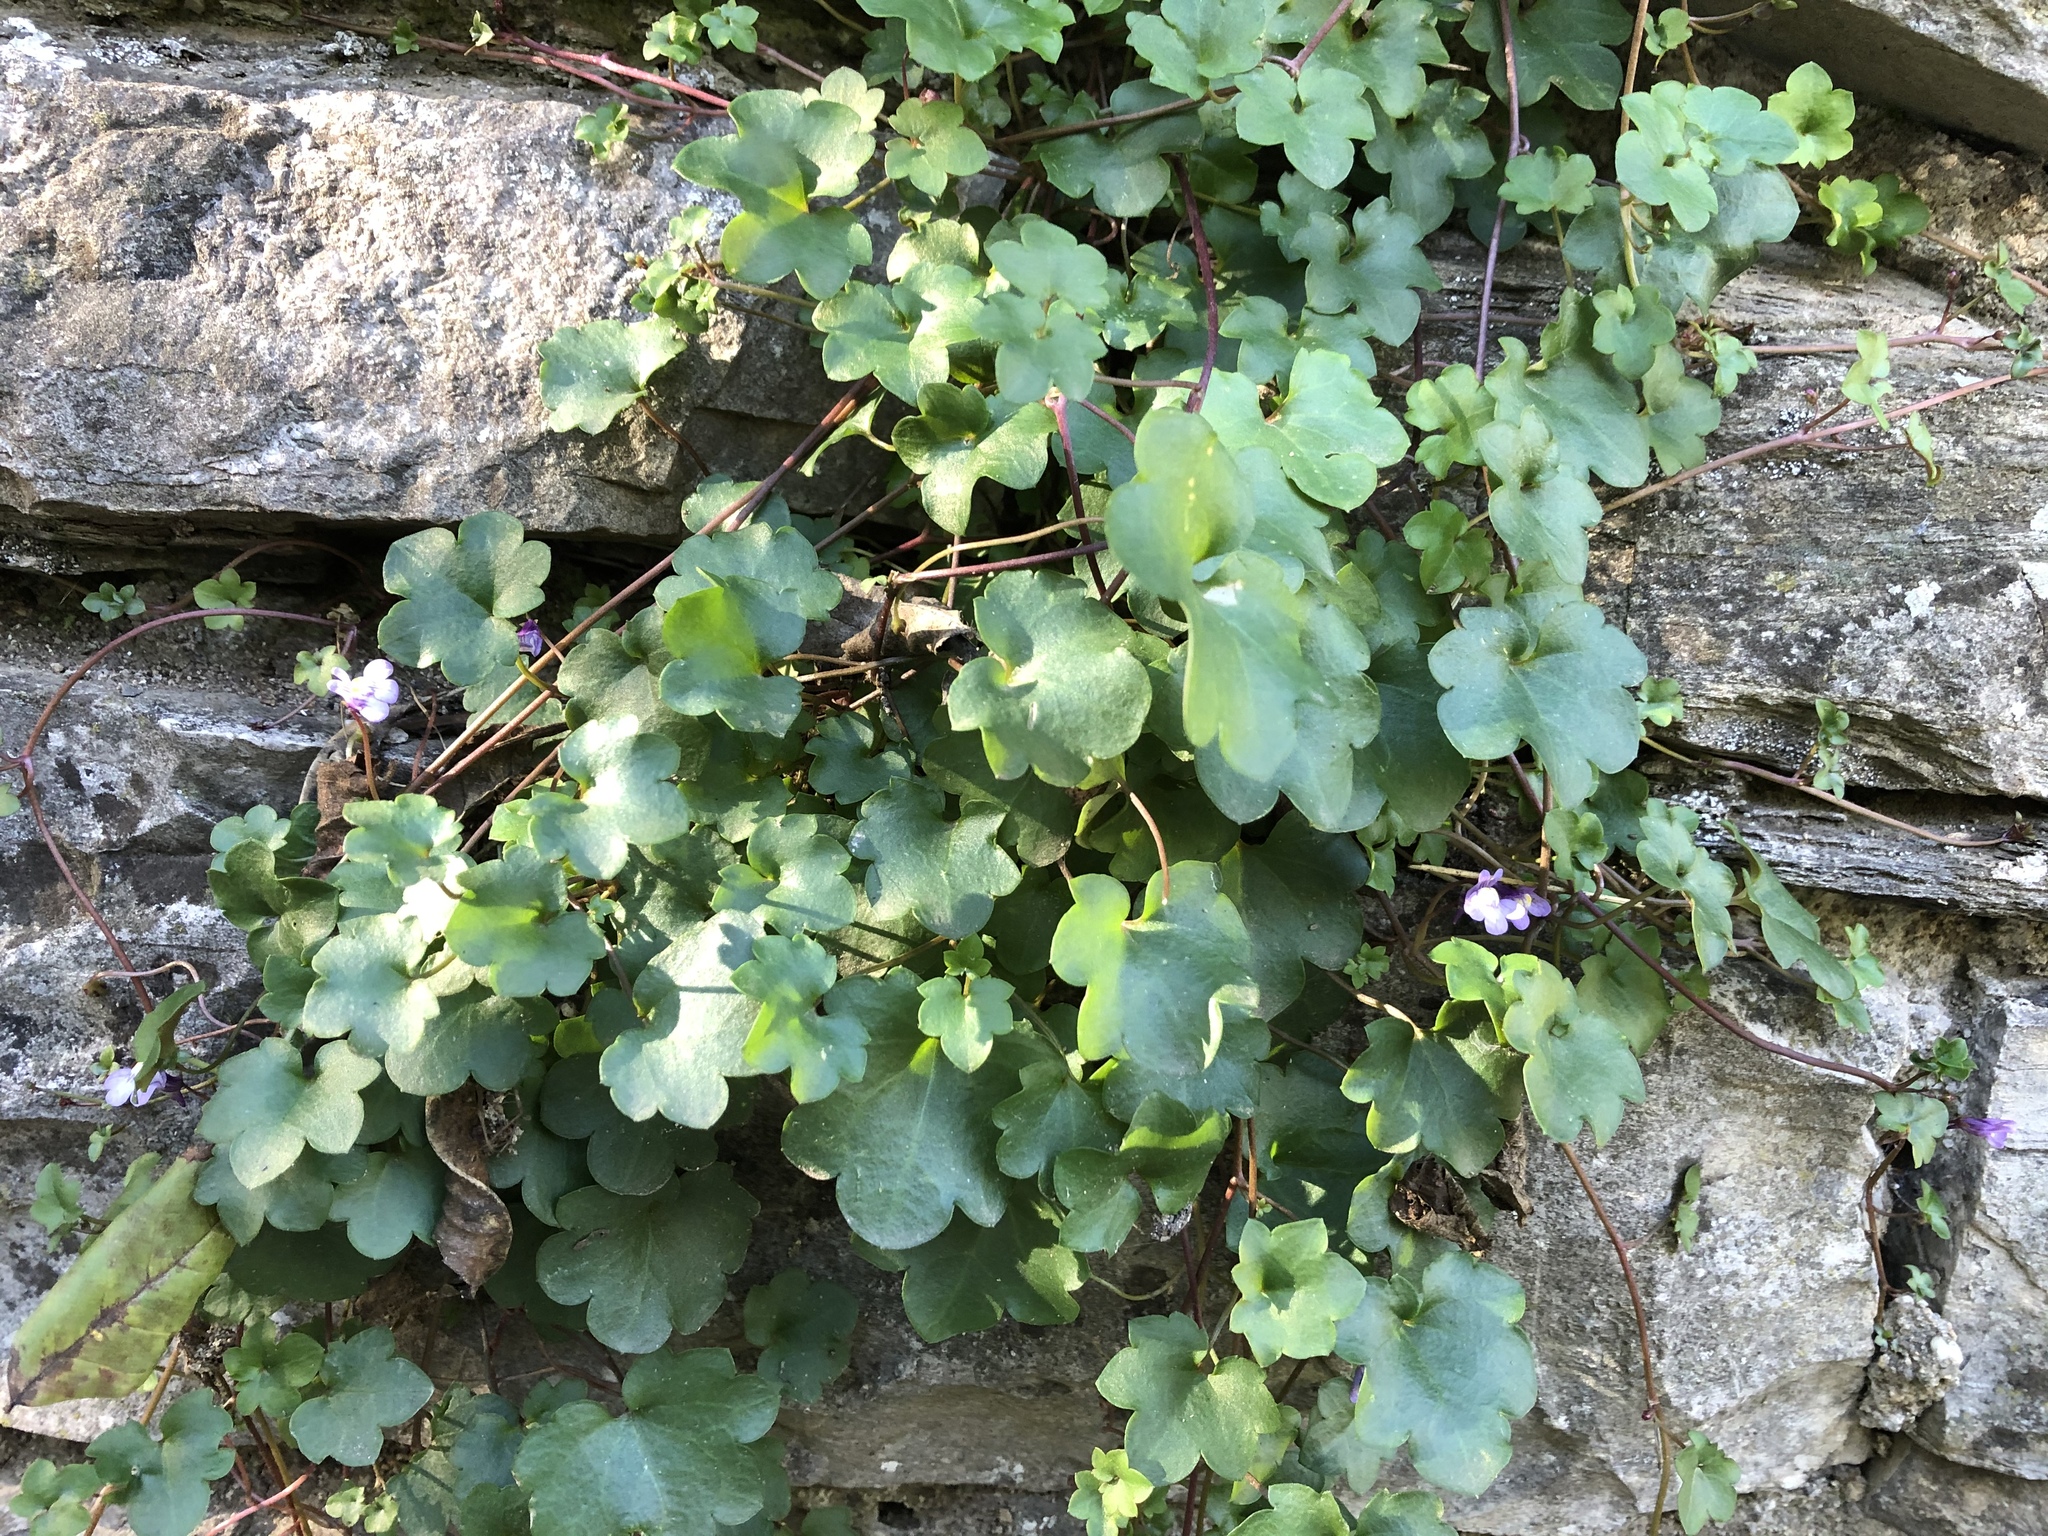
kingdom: Plantae
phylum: Tracheophyta
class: Magnoliopsida
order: Lamiales
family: Plantaginaceae
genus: Cymbalaria
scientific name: Cymbalaria muralis
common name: Ivy-leaved toadflax
